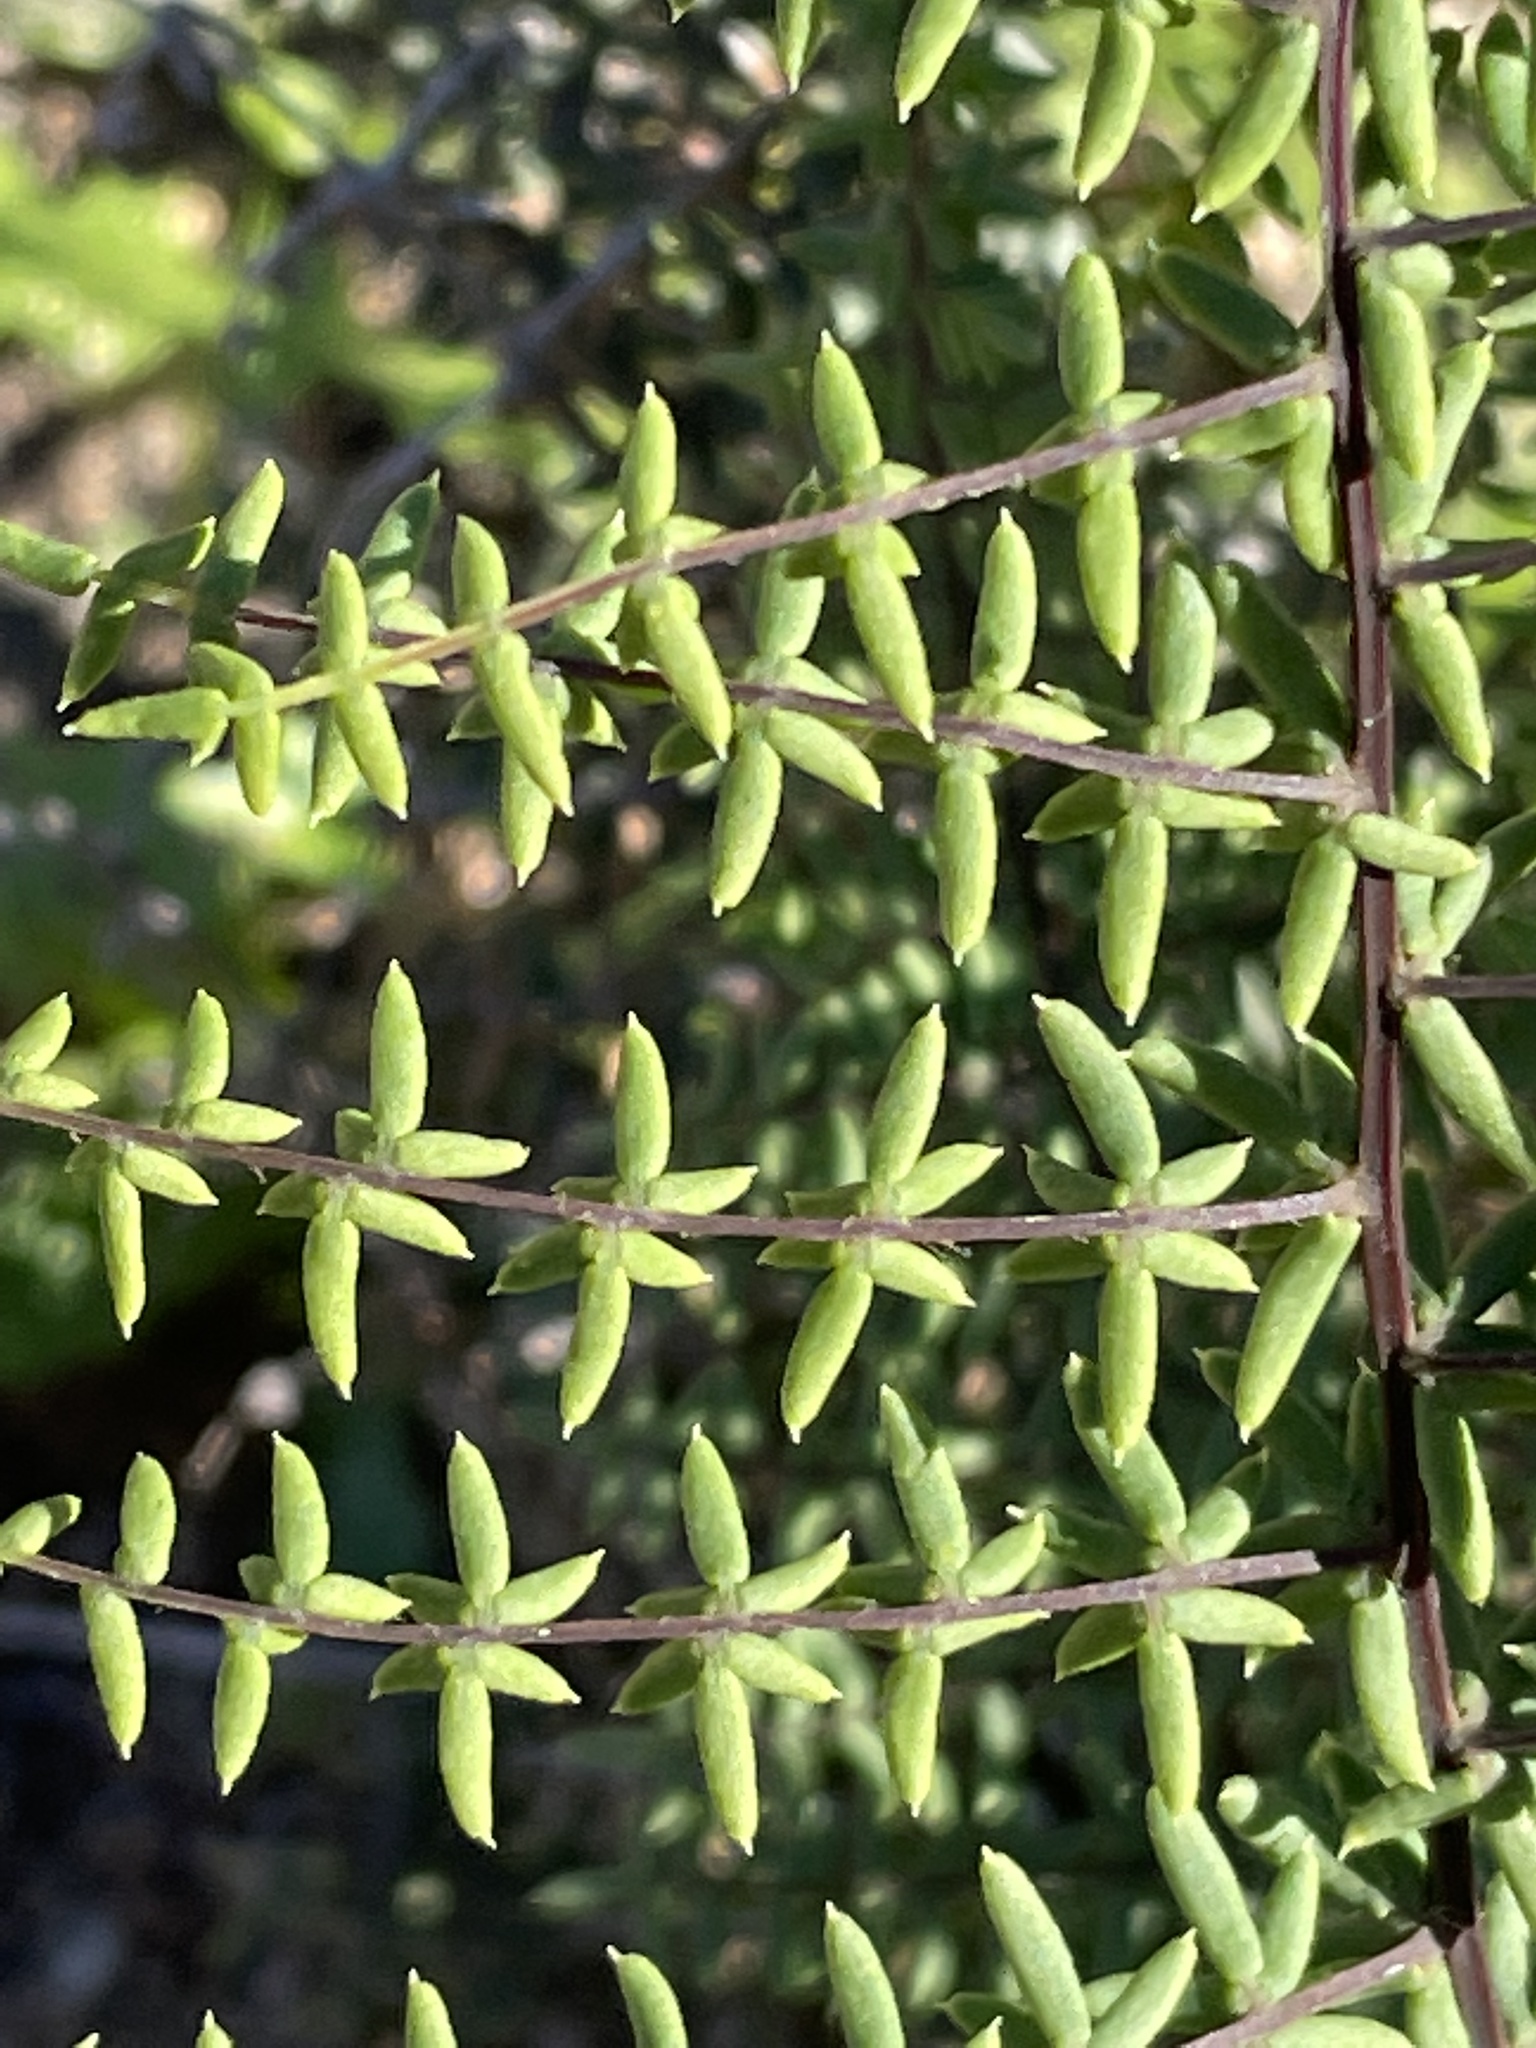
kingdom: Plantae
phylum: Tracheophyta
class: Polypodiopsida
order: Polypodiales
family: Pteridaceae
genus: Pellaea
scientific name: Pellaea mucronata
